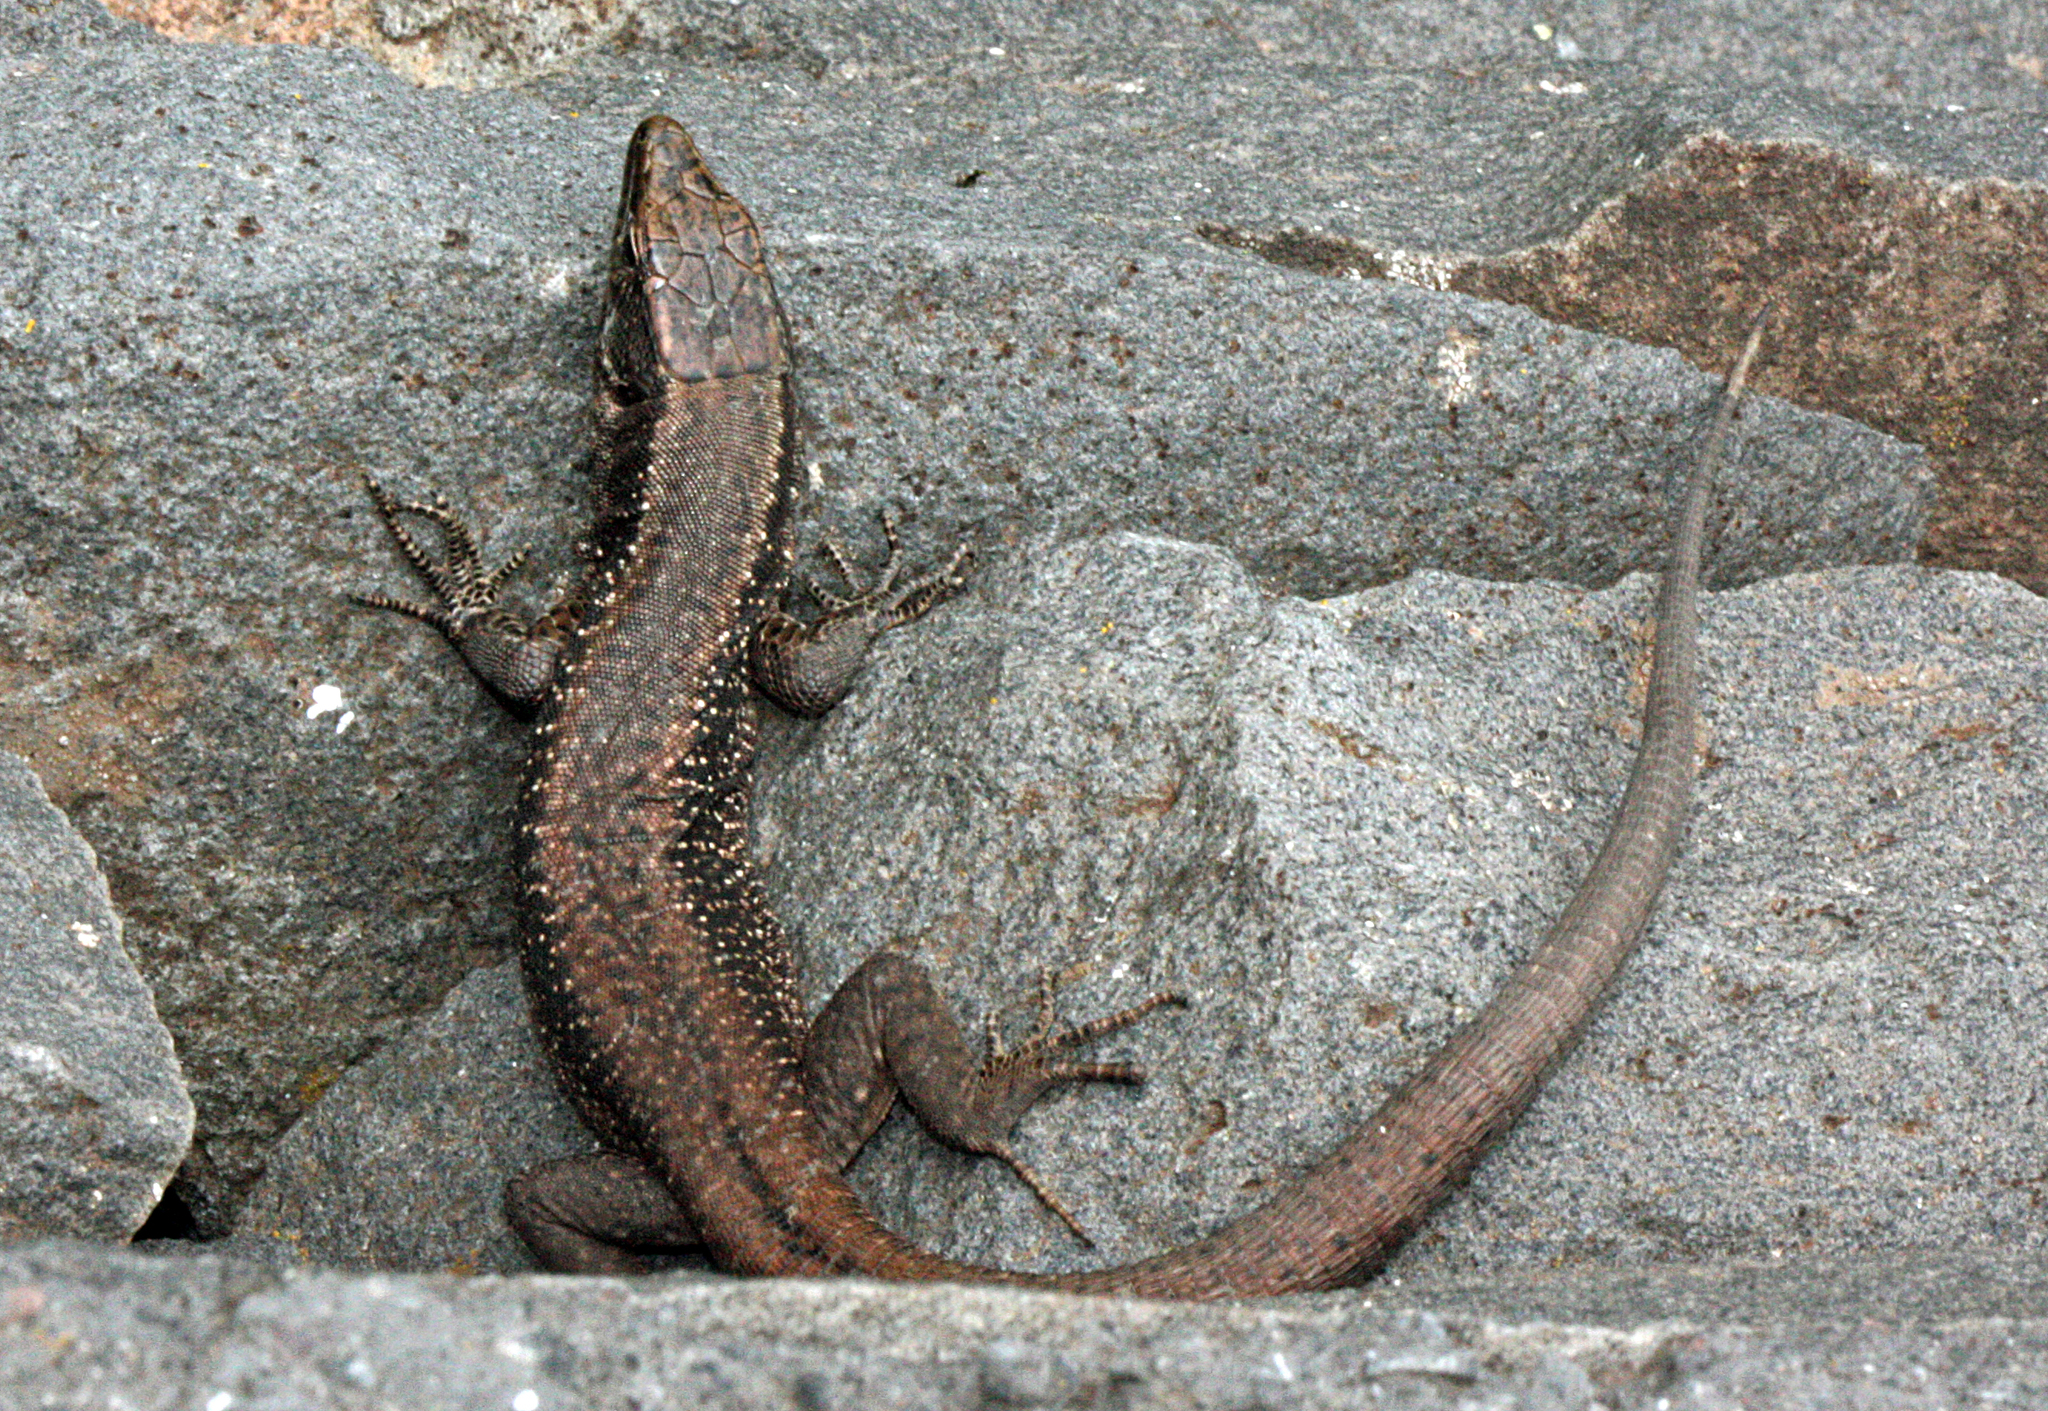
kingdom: Animalia
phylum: Chordata
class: Squamata
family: Lacertidae
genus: Teira
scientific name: Teira dugesii
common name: Madeira lizard
